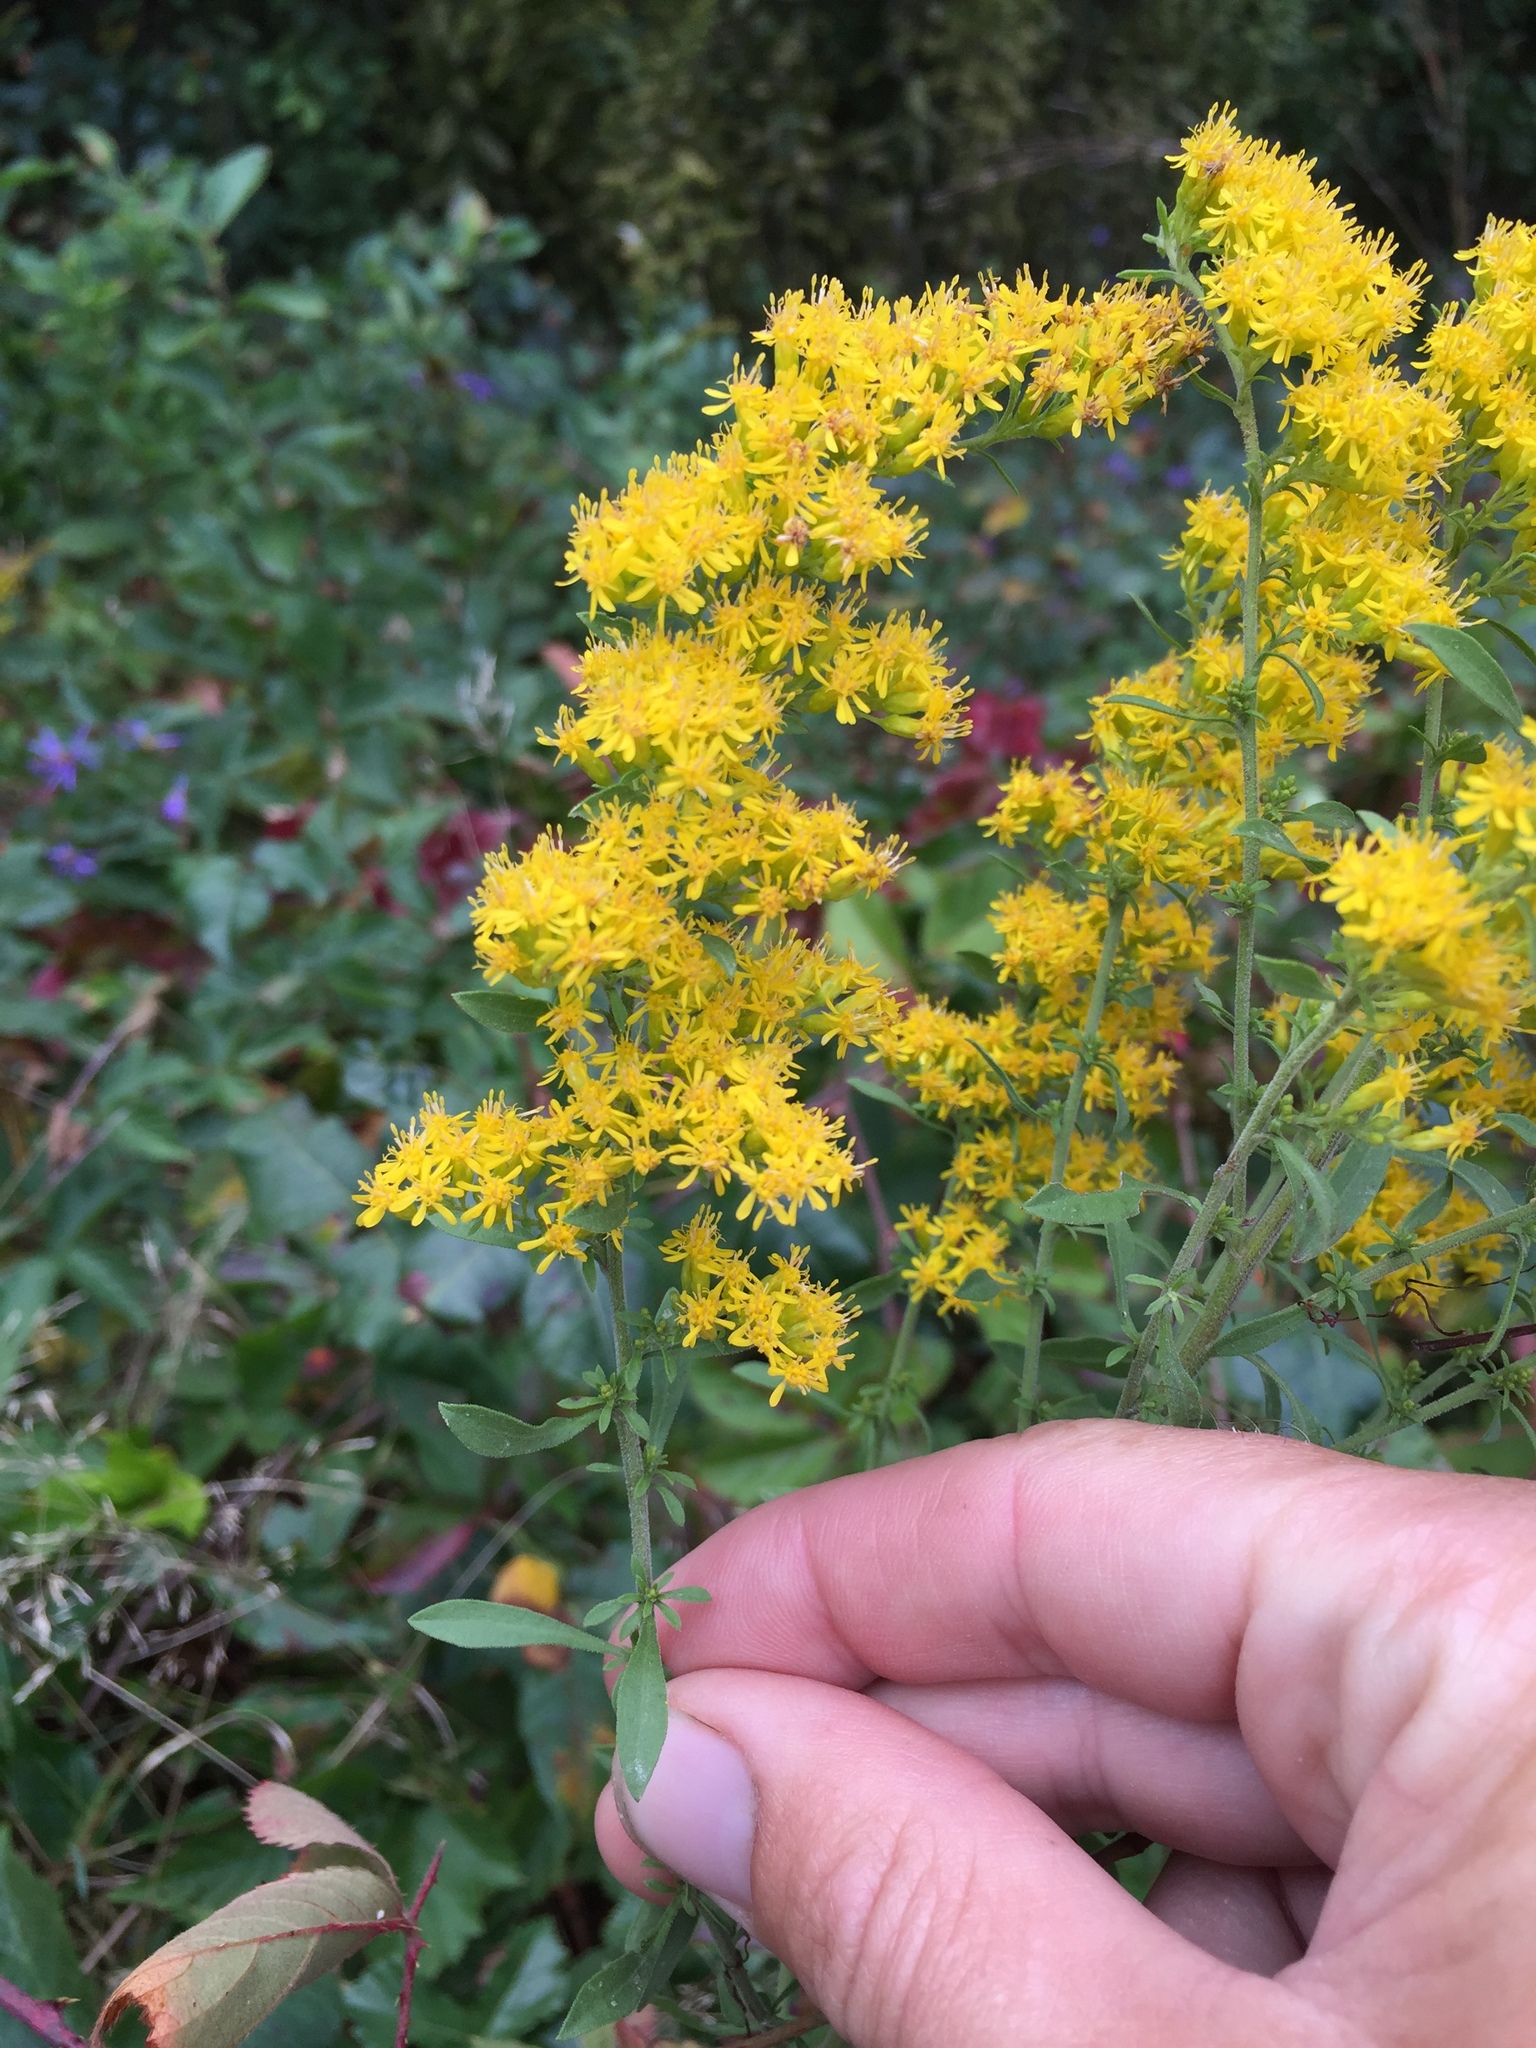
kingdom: Plantae
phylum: Tracheophyta
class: Magnoliopsida
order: Asterales
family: Asteraceae
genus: Solidago
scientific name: Solidago nemoralis
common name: Grey goldenrod
